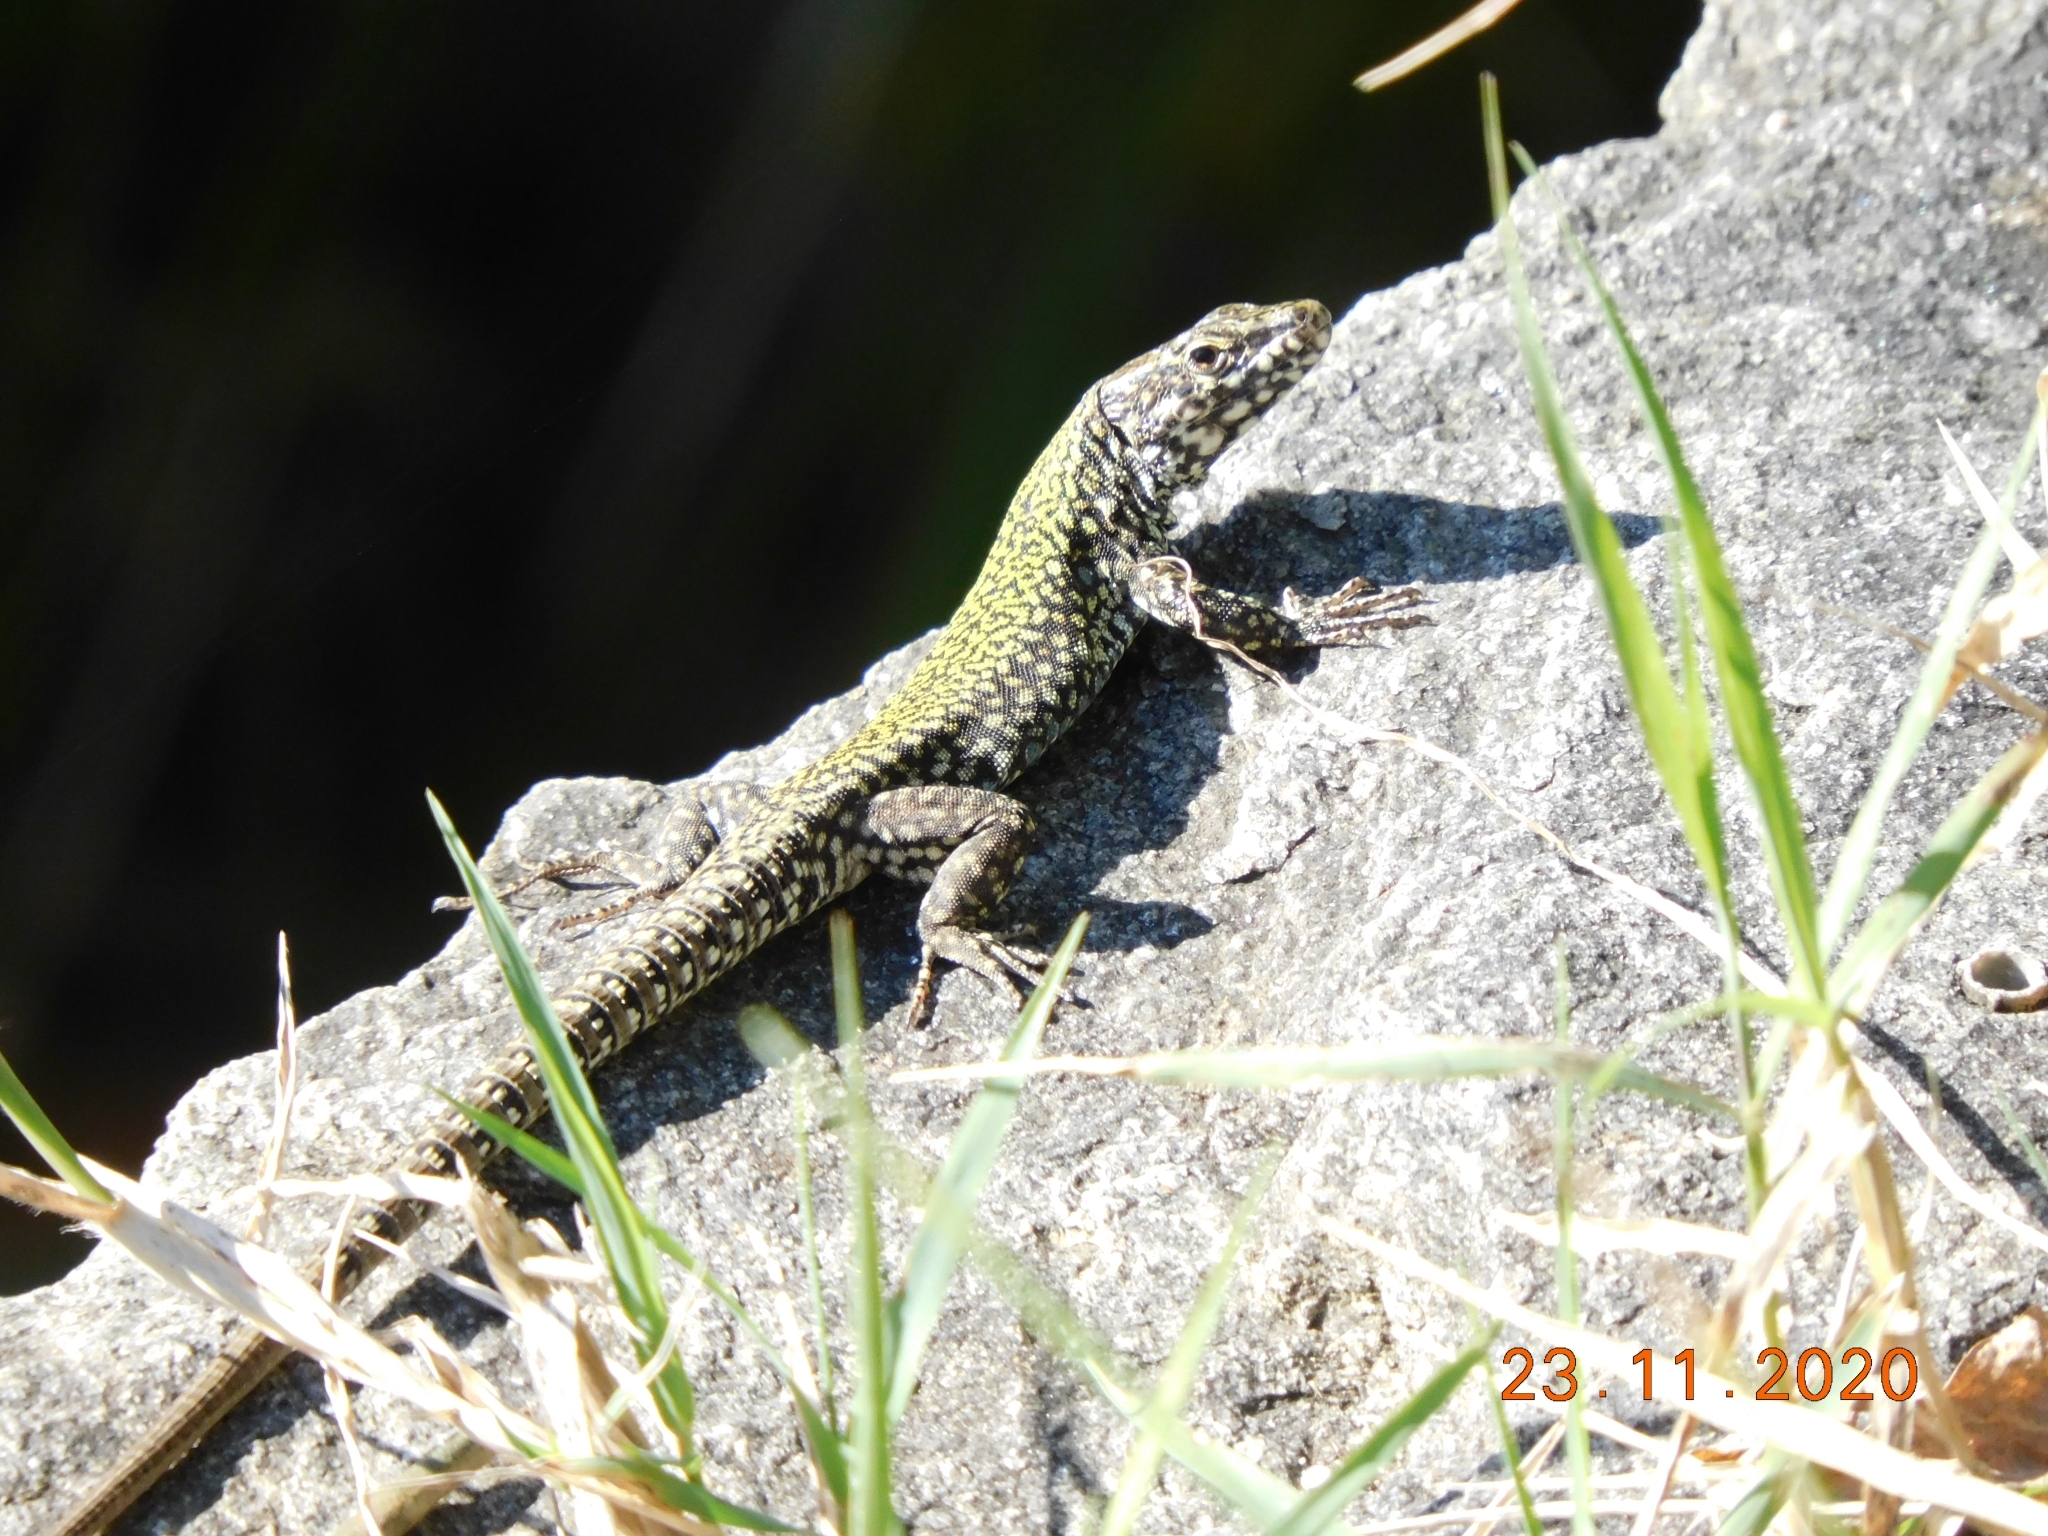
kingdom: Animalia
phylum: Chordata
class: Squamata
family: Lacertidae
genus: Podarcis
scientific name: Podarcis muralis
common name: Common wall lizard
